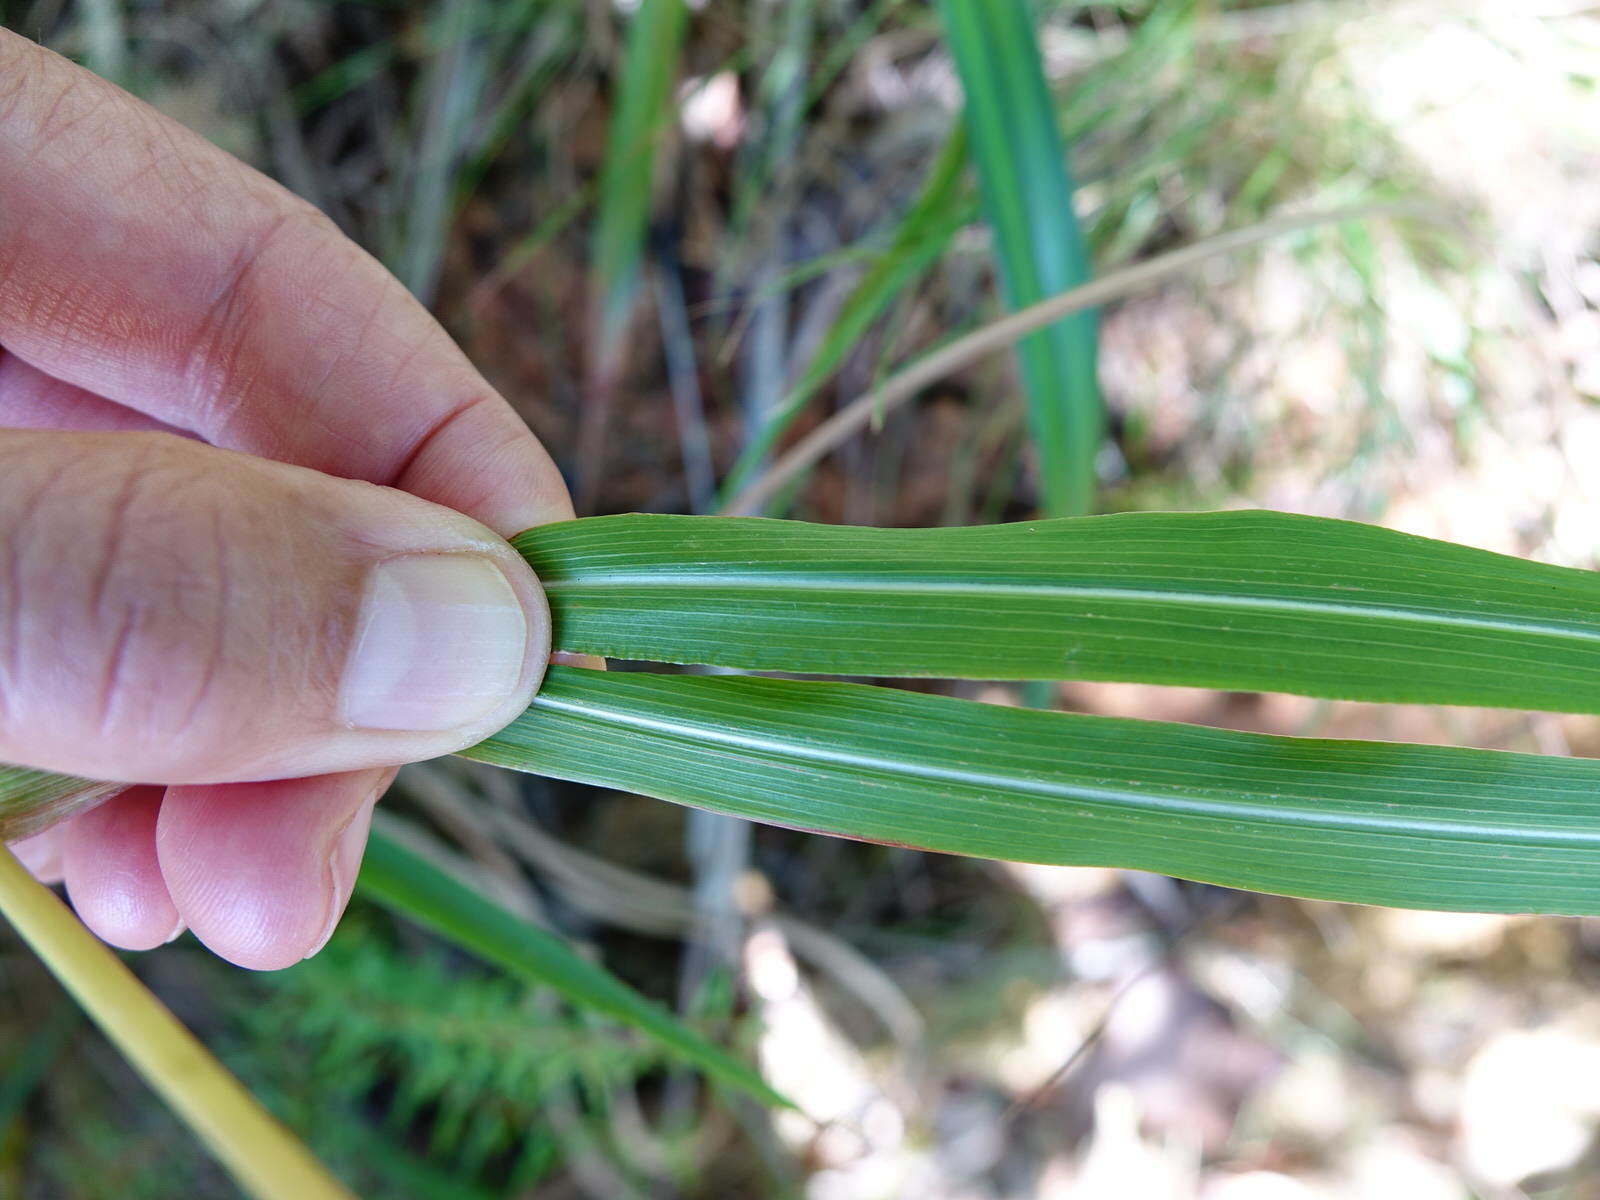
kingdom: Plantae
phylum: Tracheophyta
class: Liliopsida
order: Poales
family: Poaceae
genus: Miscanthus
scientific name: Miscanthus nepalensis
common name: Nepal silver grass
